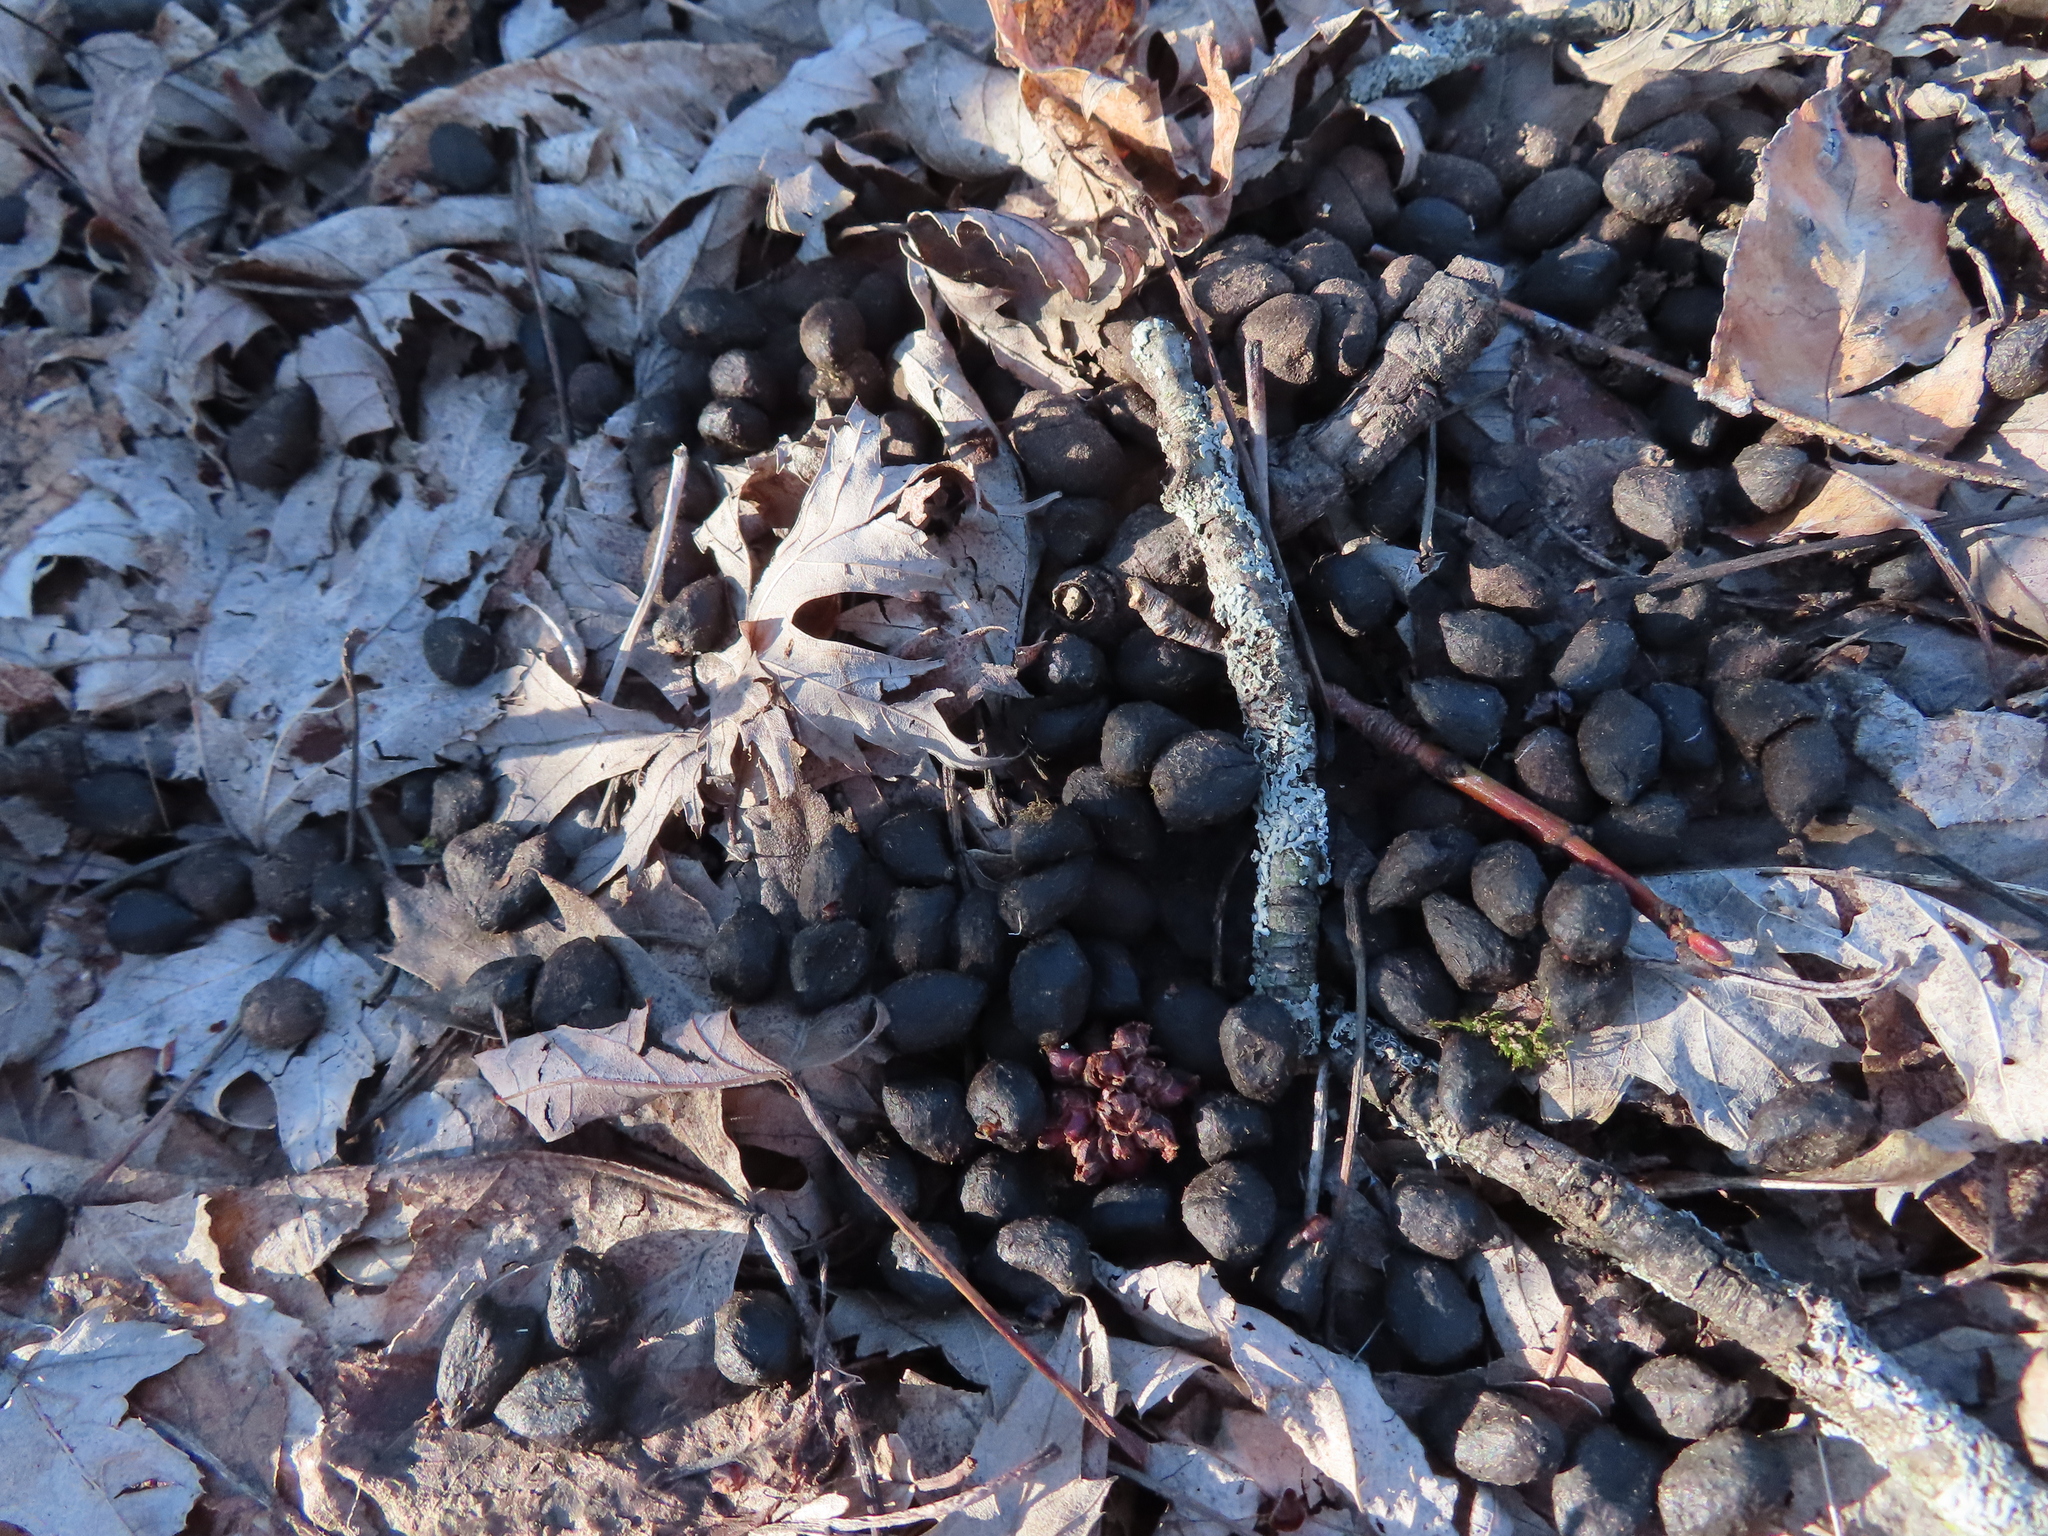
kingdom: Animalia
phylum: Chordata
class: Mammalia
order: Artiodactyla
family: Cervidae
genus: Odocoileus
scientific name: Odocoileus virginianus
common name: White-tailed deer
